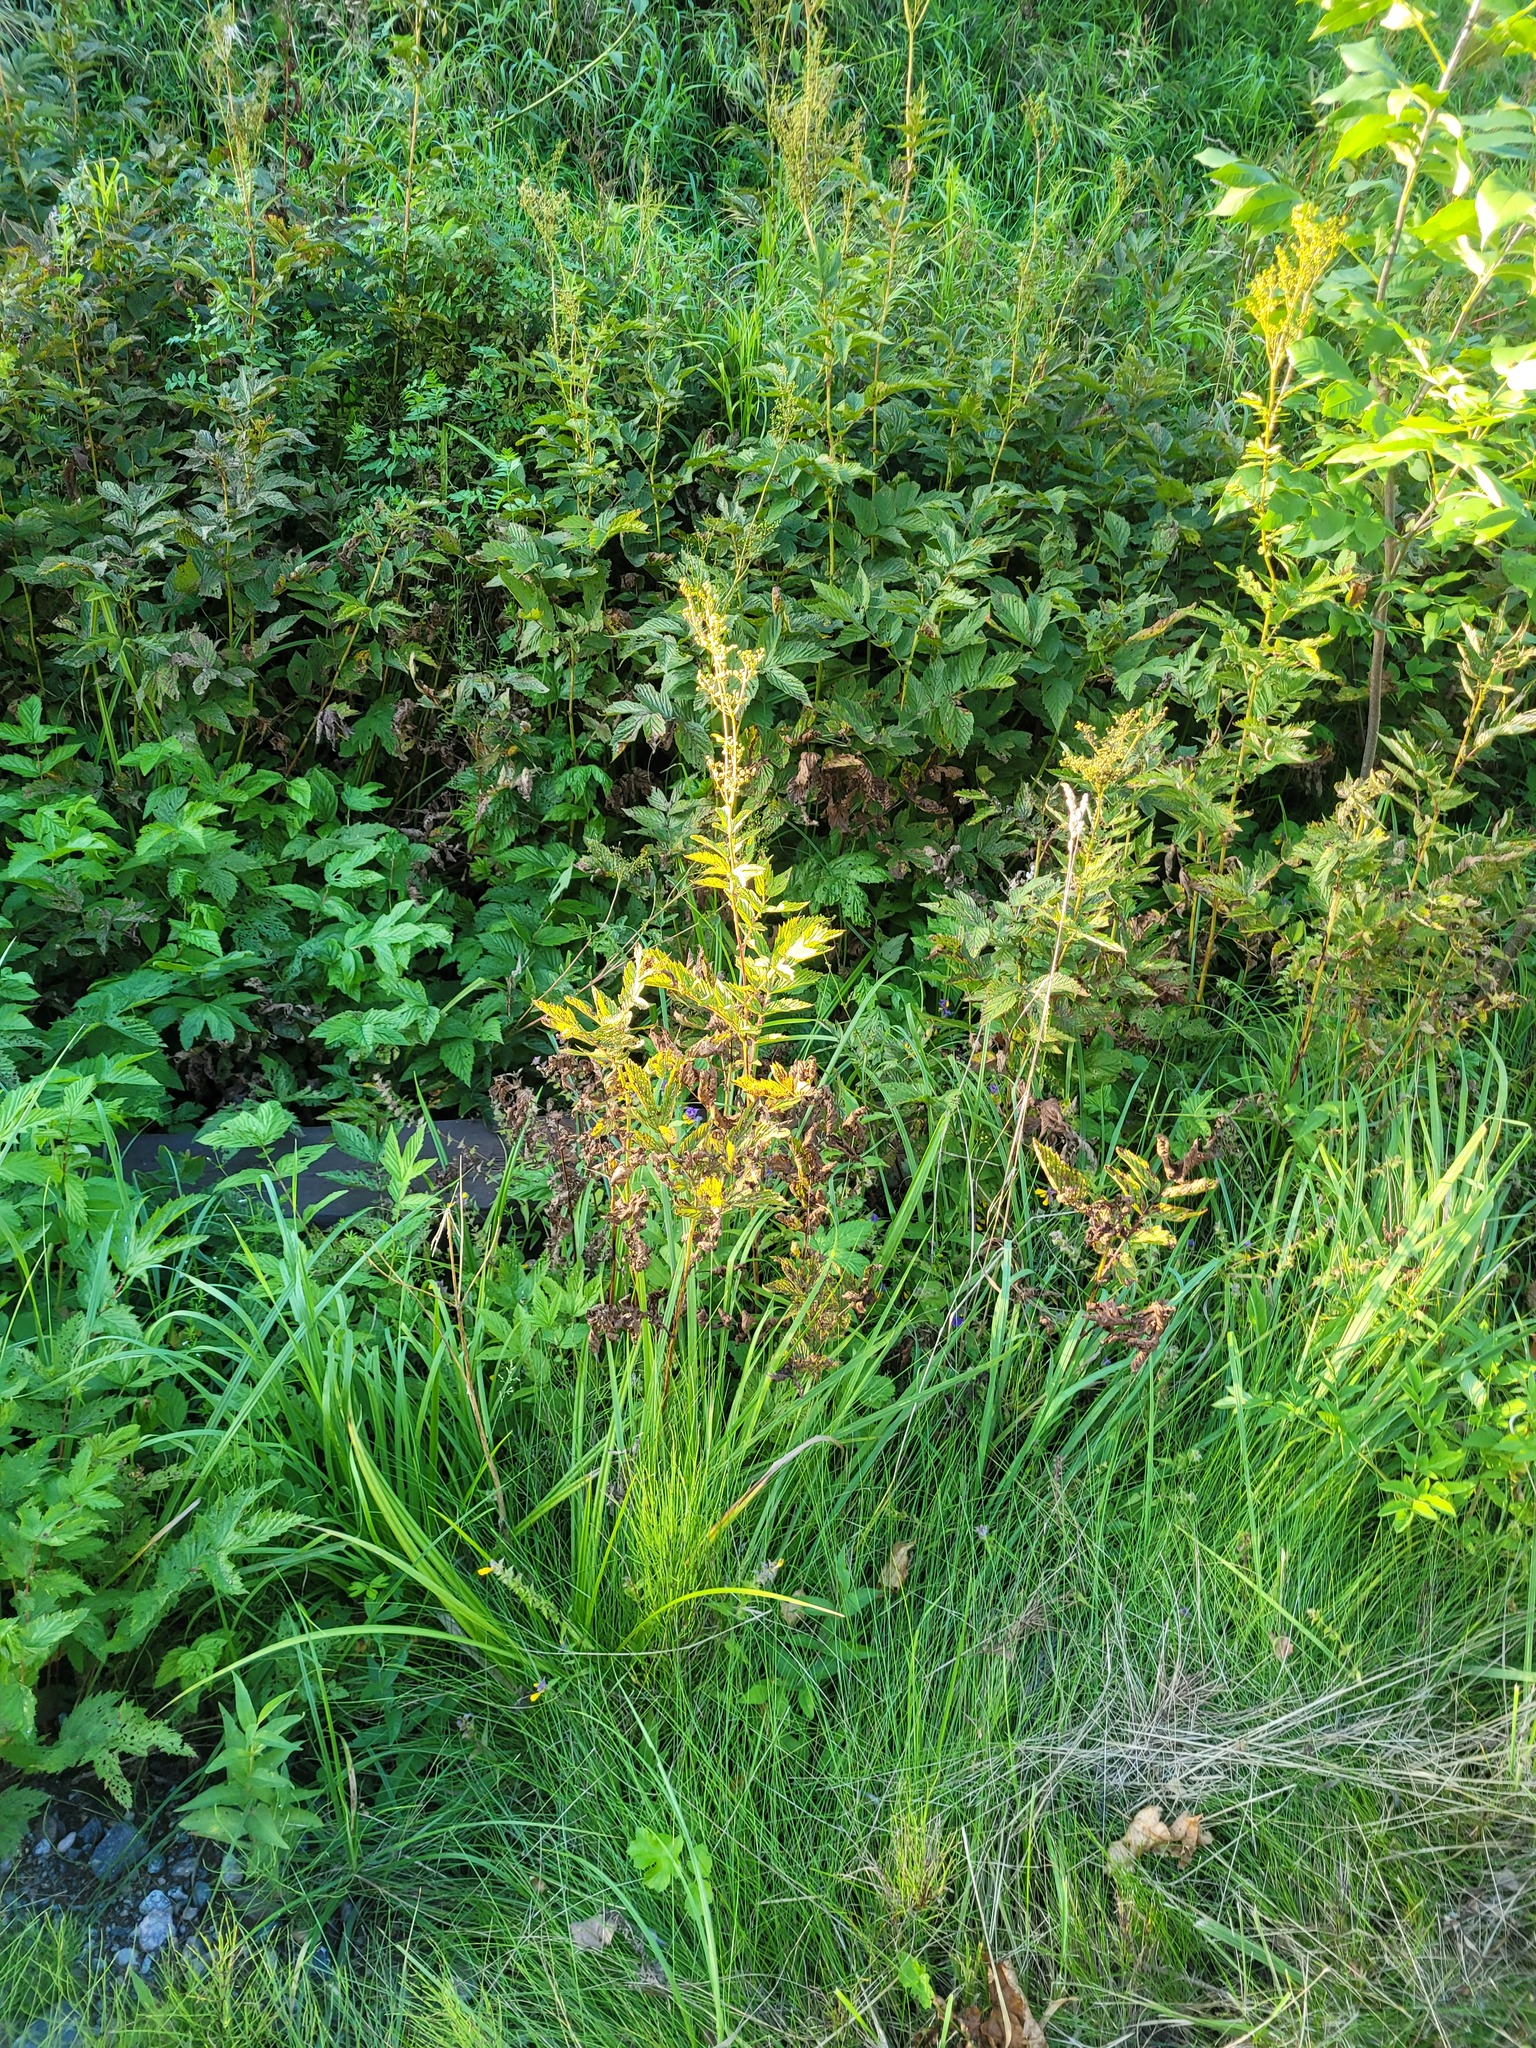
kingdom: Plantae
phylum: Tracheophyta
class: Magnoliopsida
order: Rosales
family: Rosaceae
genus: Filipendula
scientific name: Filipendula ulmaria
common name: Meadowsweet
